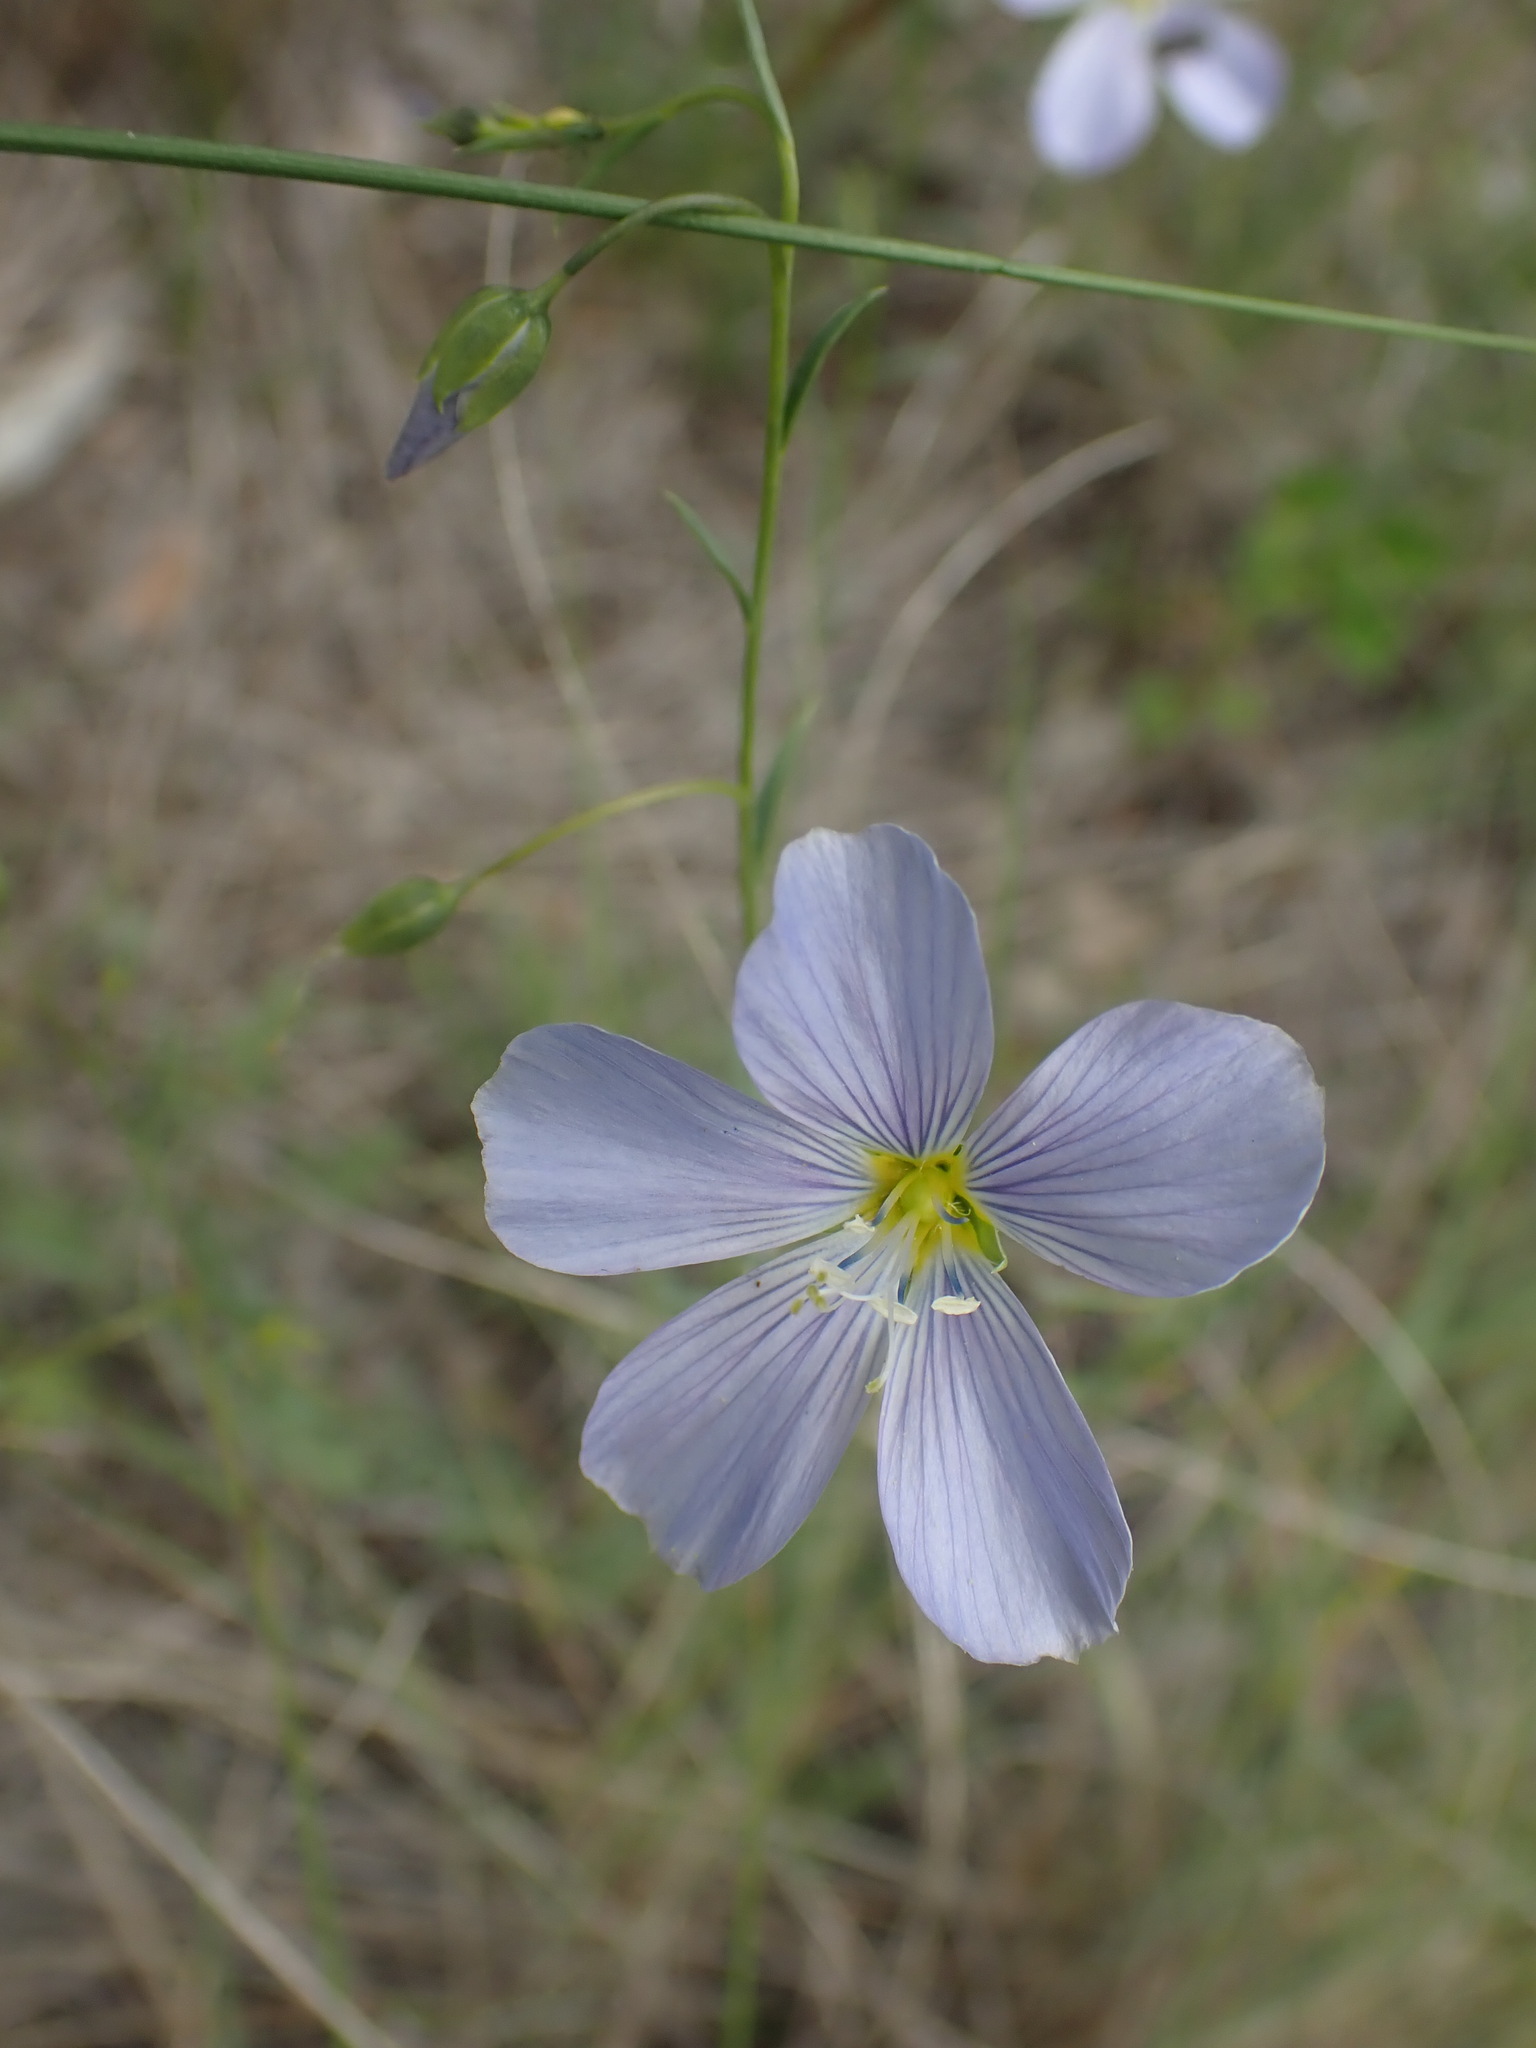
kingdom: Plantae
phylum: Tracheophyta
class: Magnoliopsida
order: Malpighiales
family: Linaceae
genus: Linum
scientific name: Linum lewisii
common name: Prairie flax
